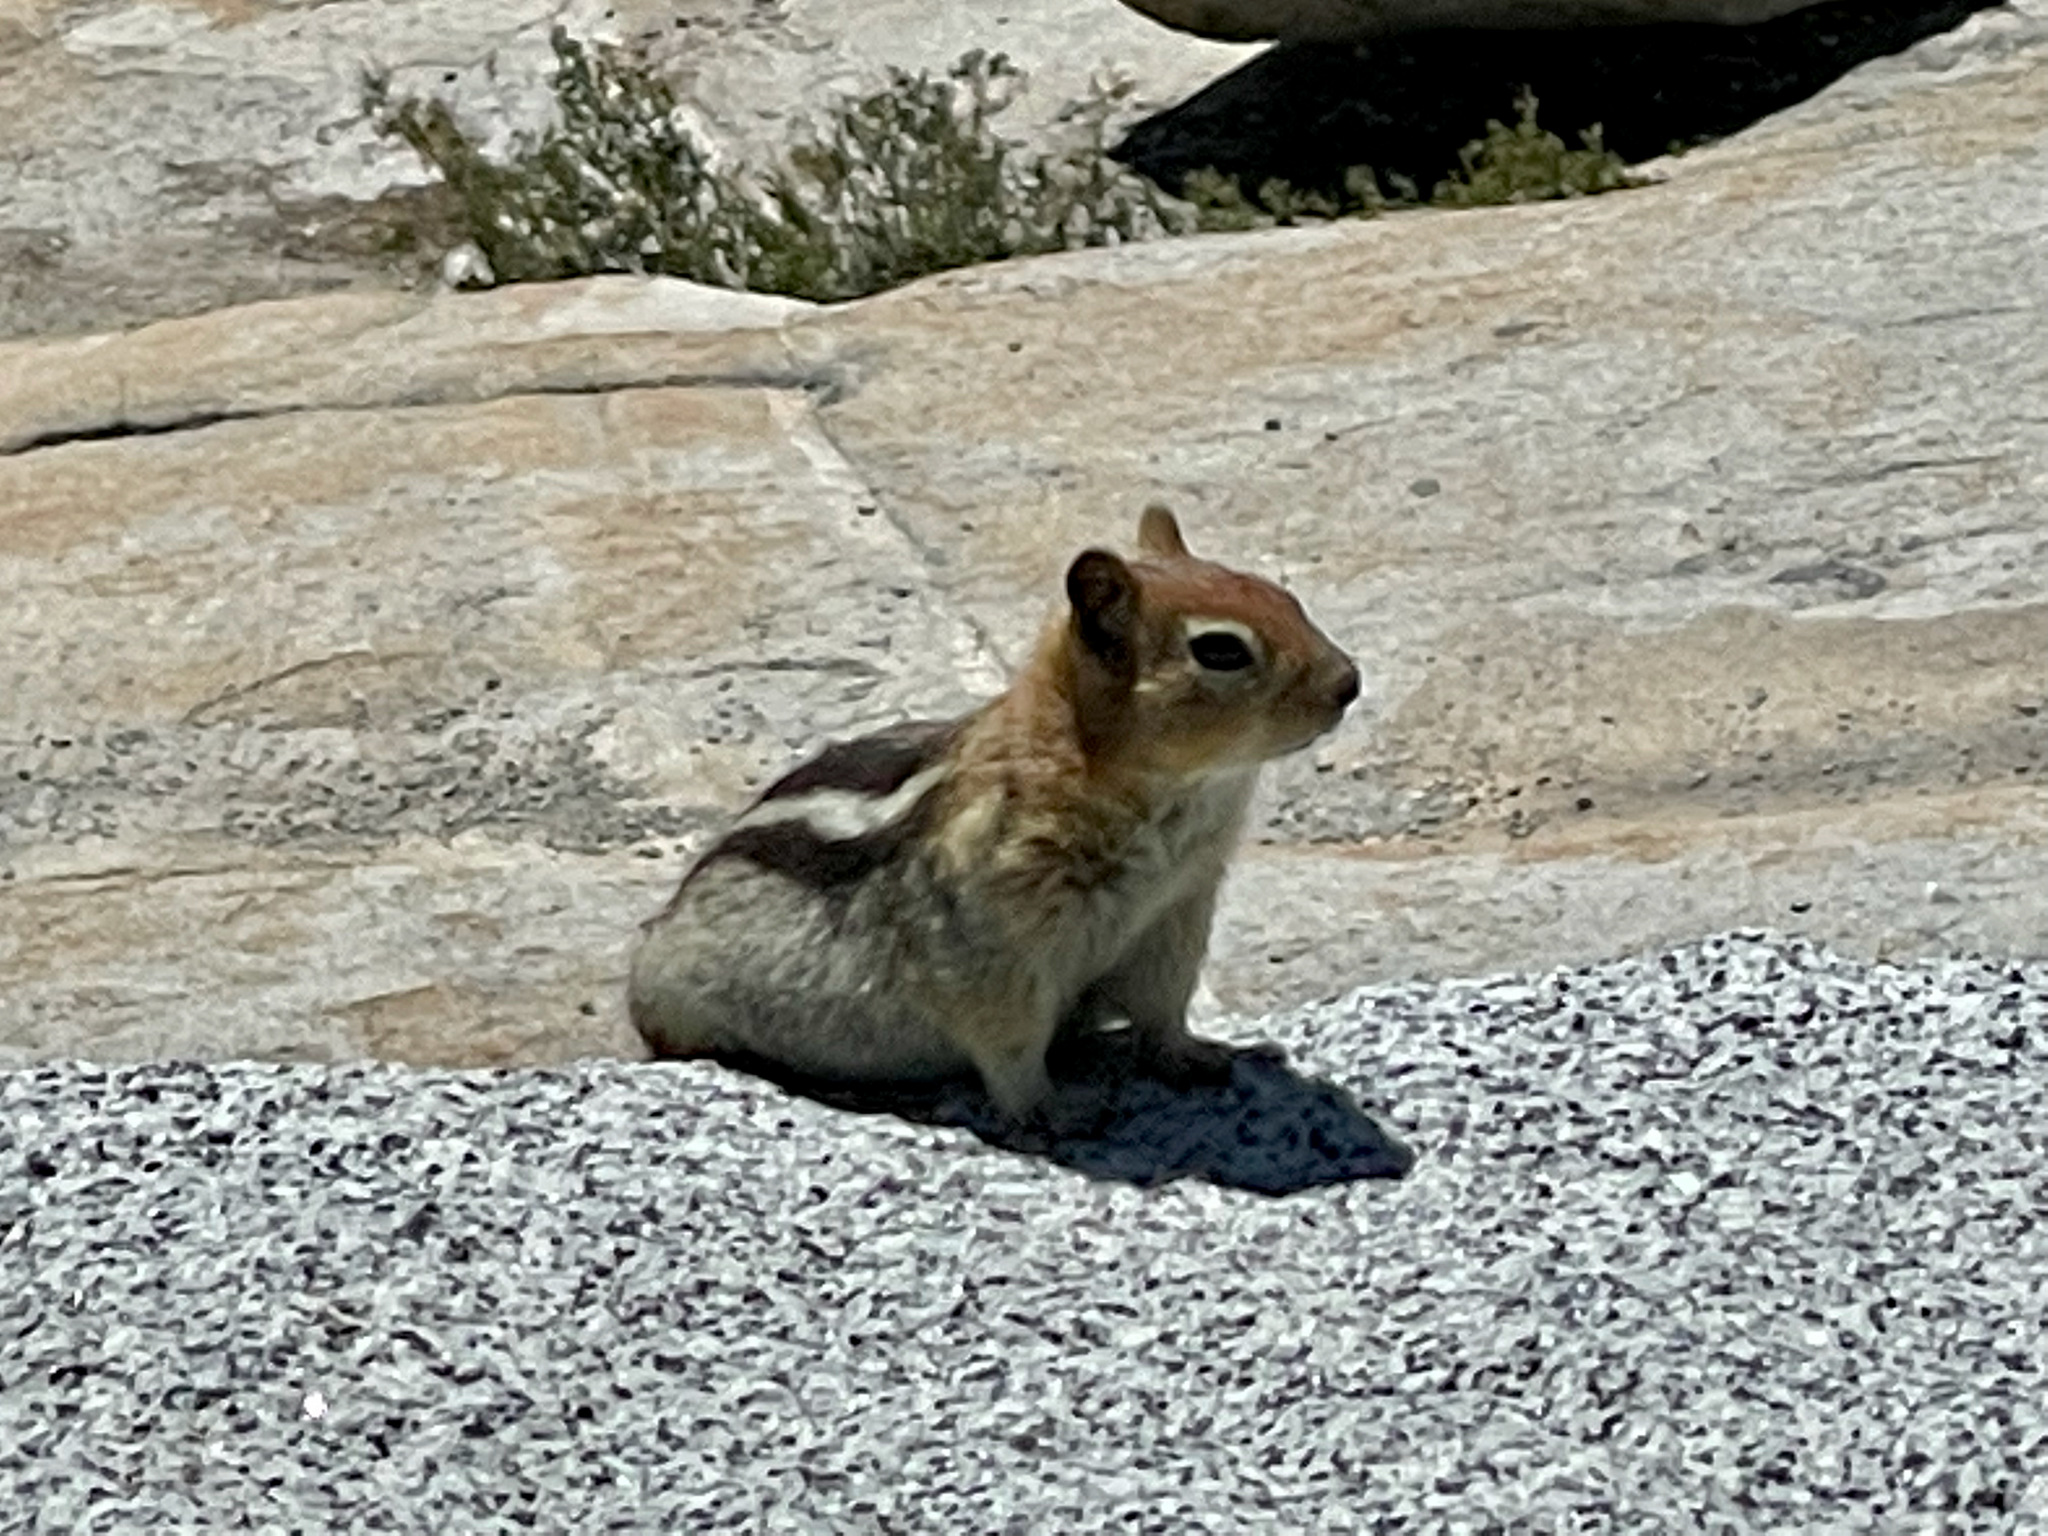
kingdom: Animalia
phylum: Chordata
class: Mammalia
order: Rodentia
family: Sciuridae
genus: Callospermophilus
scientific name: Callospermophilus lateralis
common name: Golden-mantled ground squirrel
